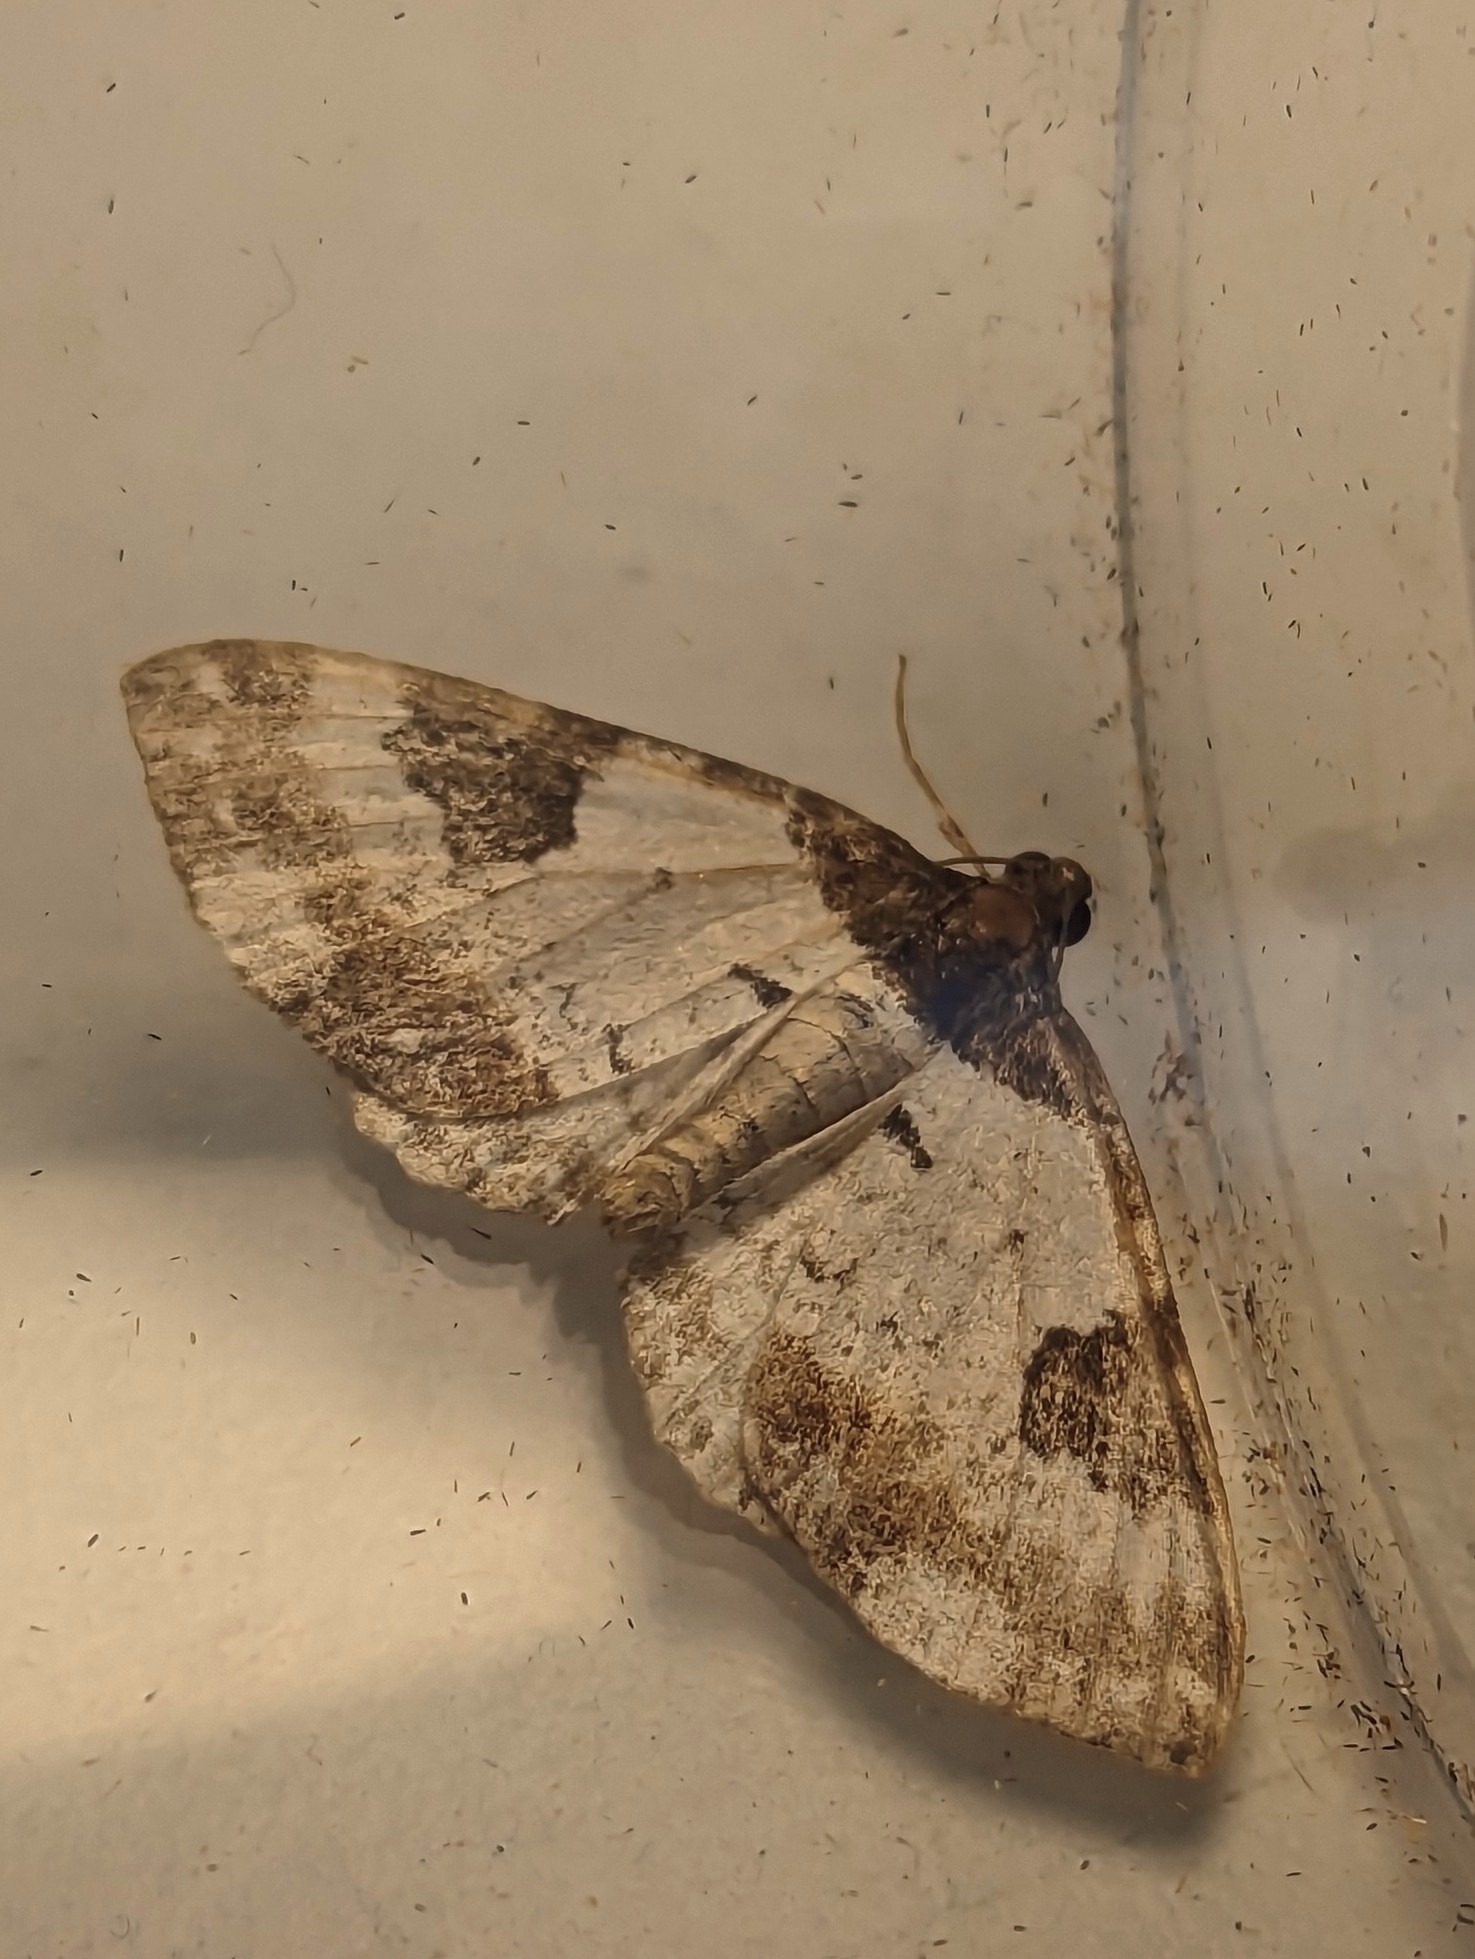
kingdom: Animalia
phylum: Arthropoda
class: Insecta
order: Lepidoptera
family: Geometridae
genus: Melanthia
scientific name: Melanthia procellata
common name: Pretty chalk carpet
